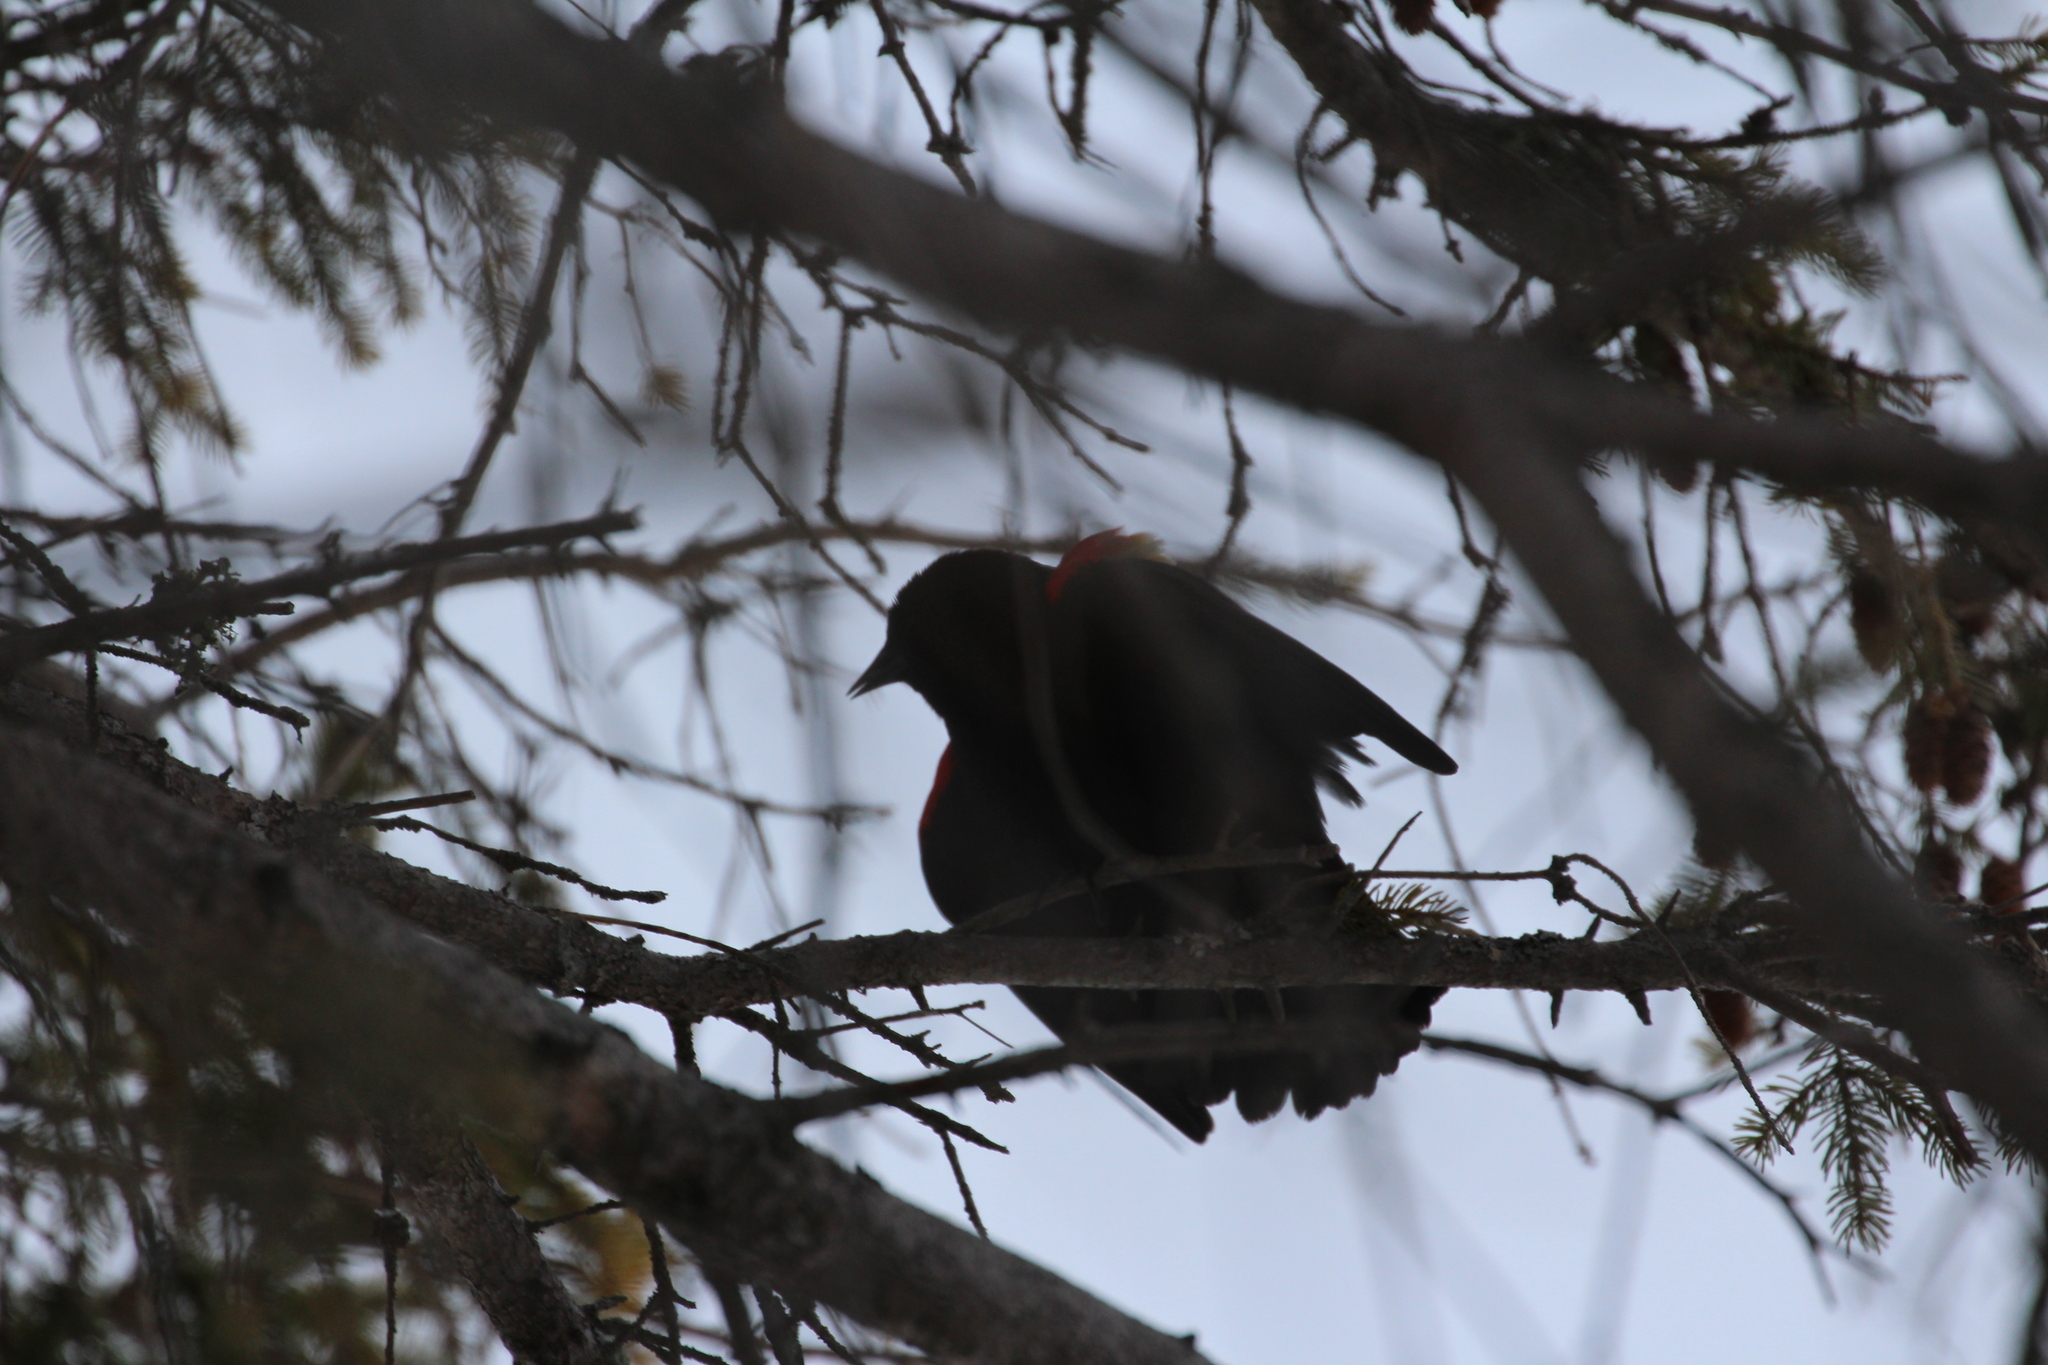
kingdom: Animalia
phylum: Chordata
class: Aves
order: Passeriformes
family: Icteridae
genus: Agelaius
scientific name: Agelaius phoeniceus
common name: Red-winged blackbird
